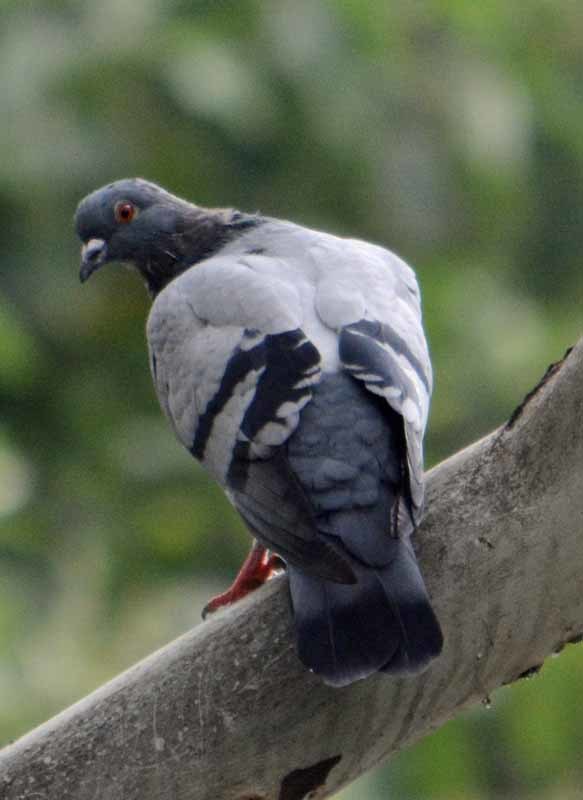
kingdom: Animalia
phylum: Chordata
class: Aves
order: Columbiformes
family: Columbidae
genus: Columba
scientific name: Columba livia
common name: Rock pigeon
